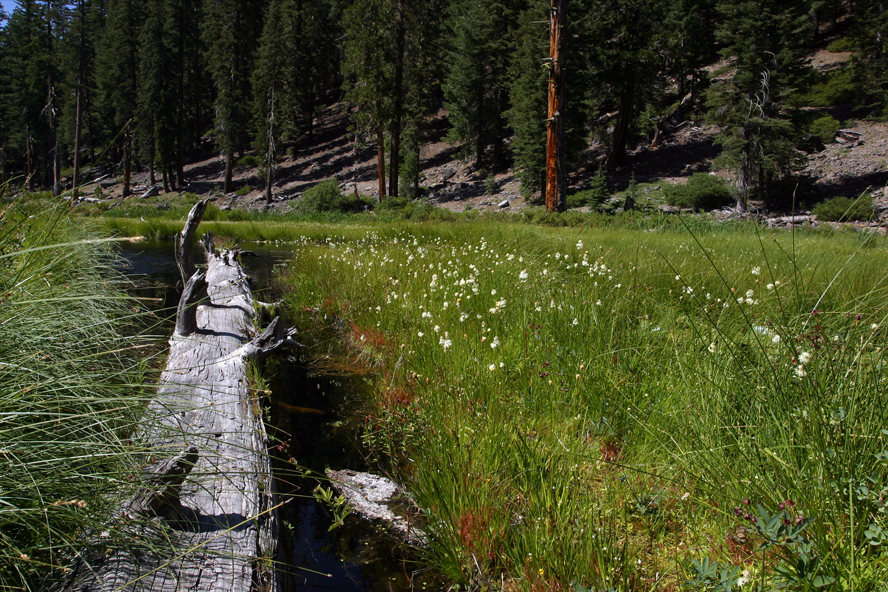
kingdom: Plantae
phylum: Tracheophyta
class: Liliopsida
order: Alismatales
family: Tofieldiaceae
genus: Triantha
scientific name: Triantha occidentalis
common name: Western false asphodel
